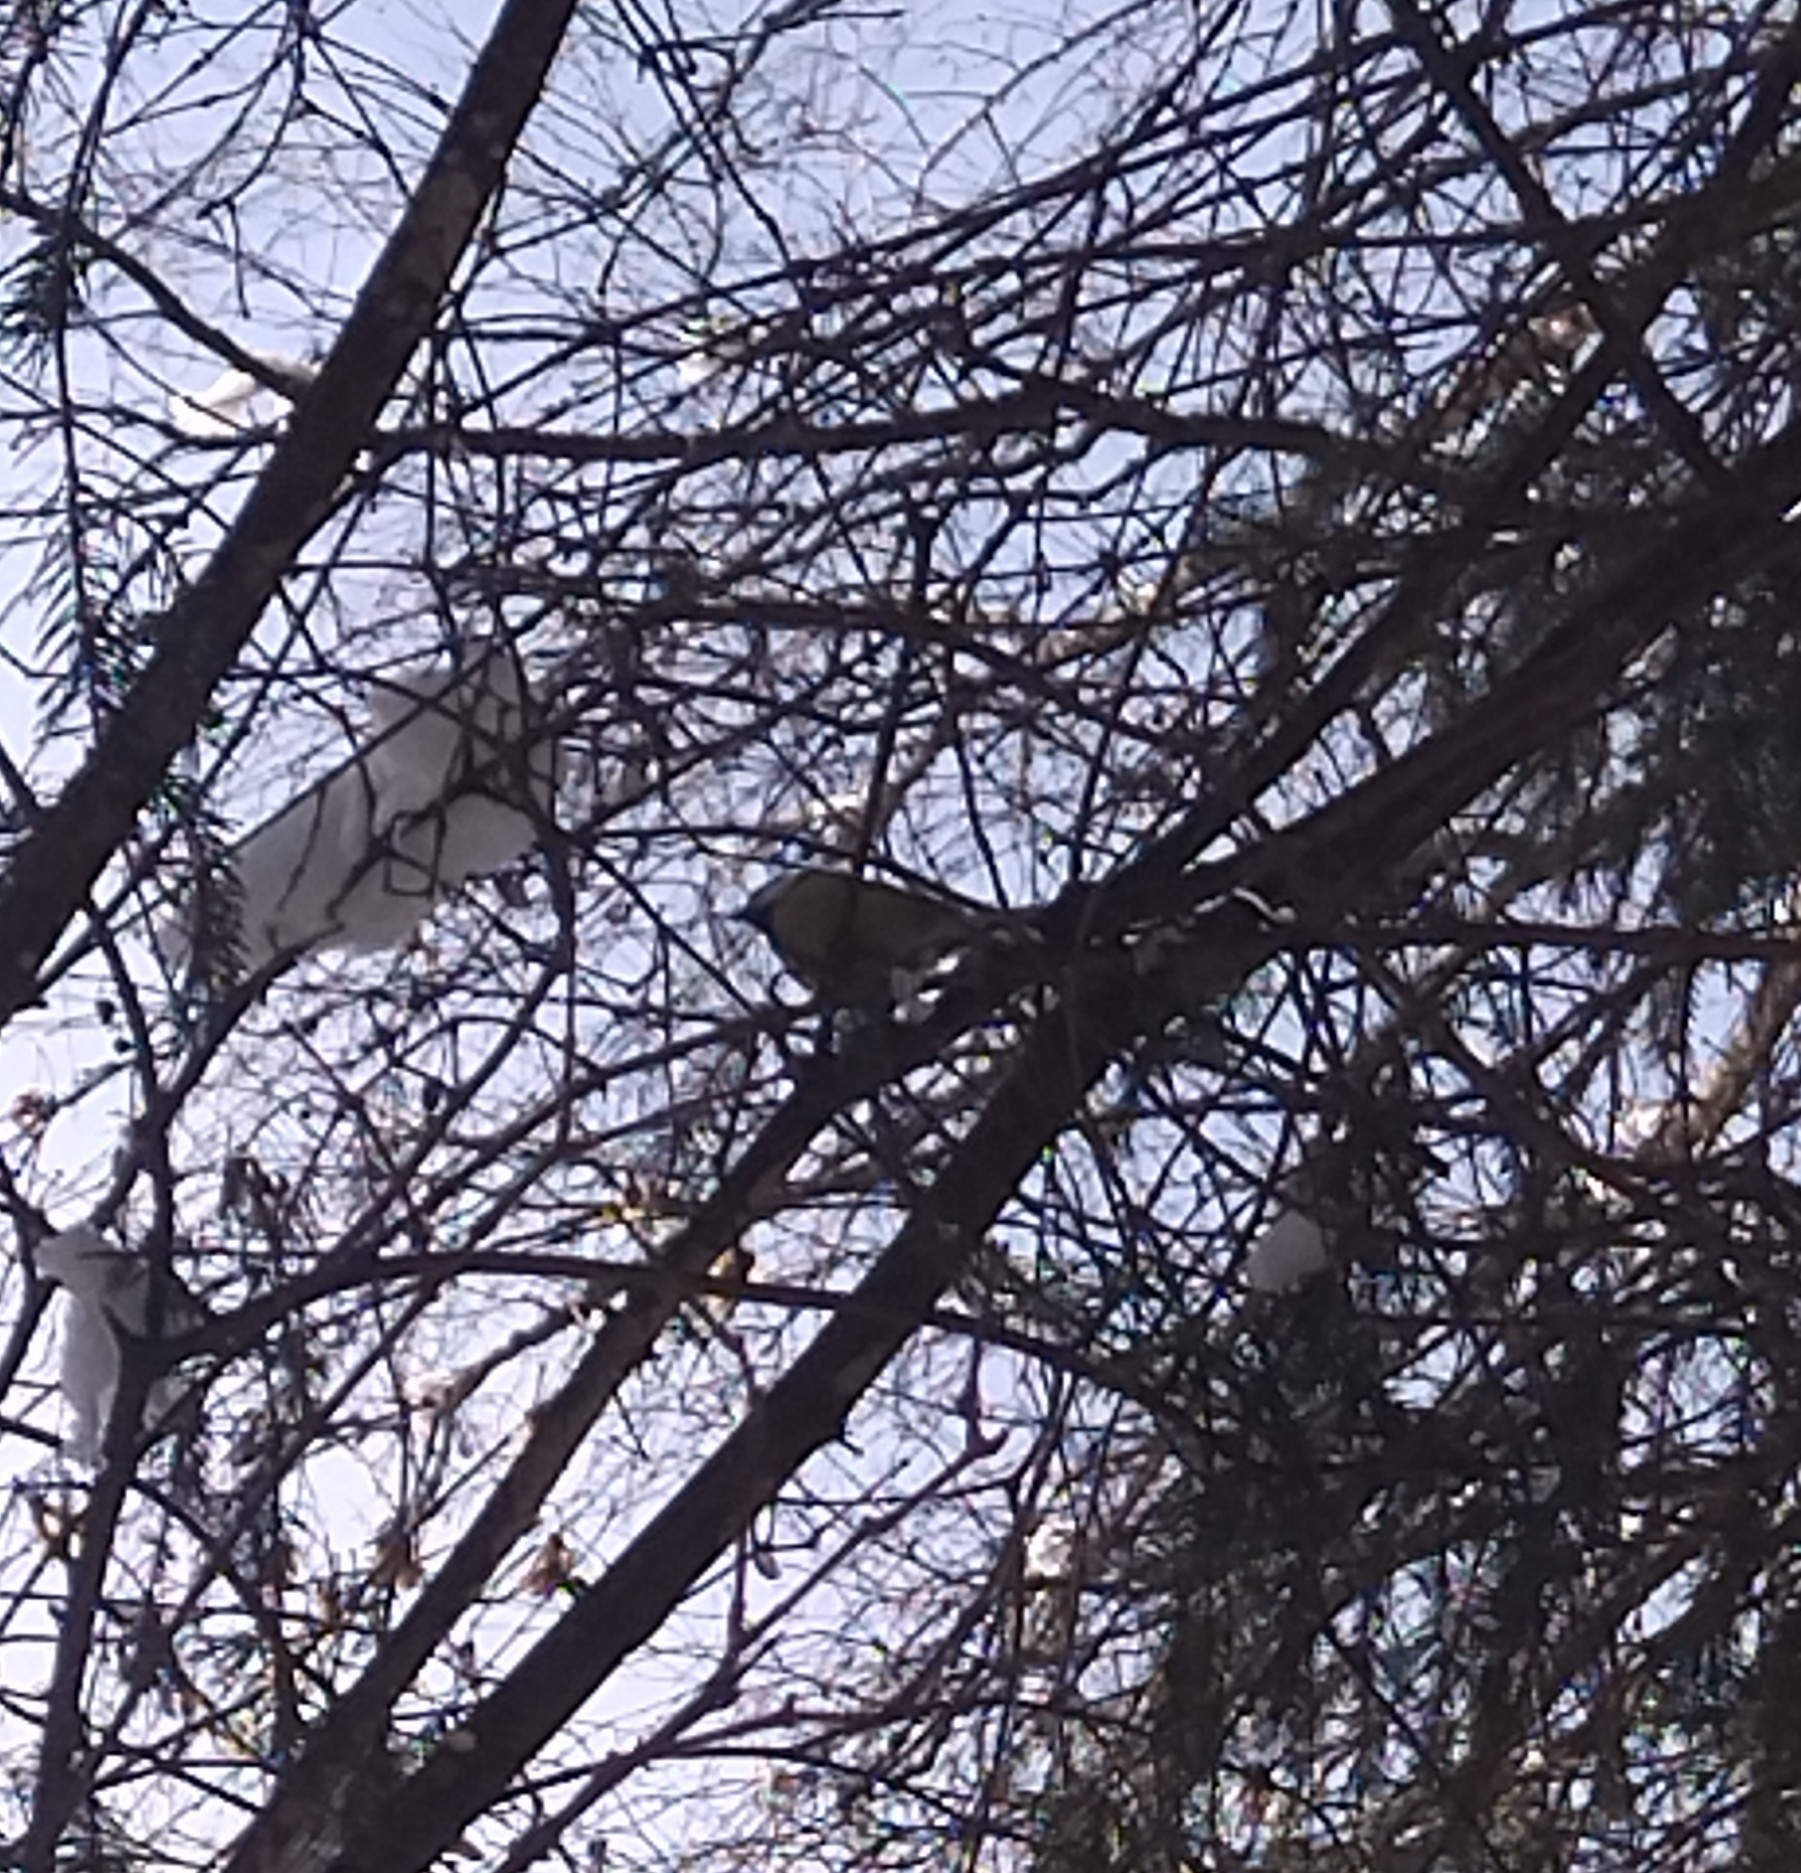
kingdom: Animalia
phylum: Chordata
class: Aves
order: Passeriformes
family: Paridae
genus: Parus
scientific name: Parus major
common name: Great tit
